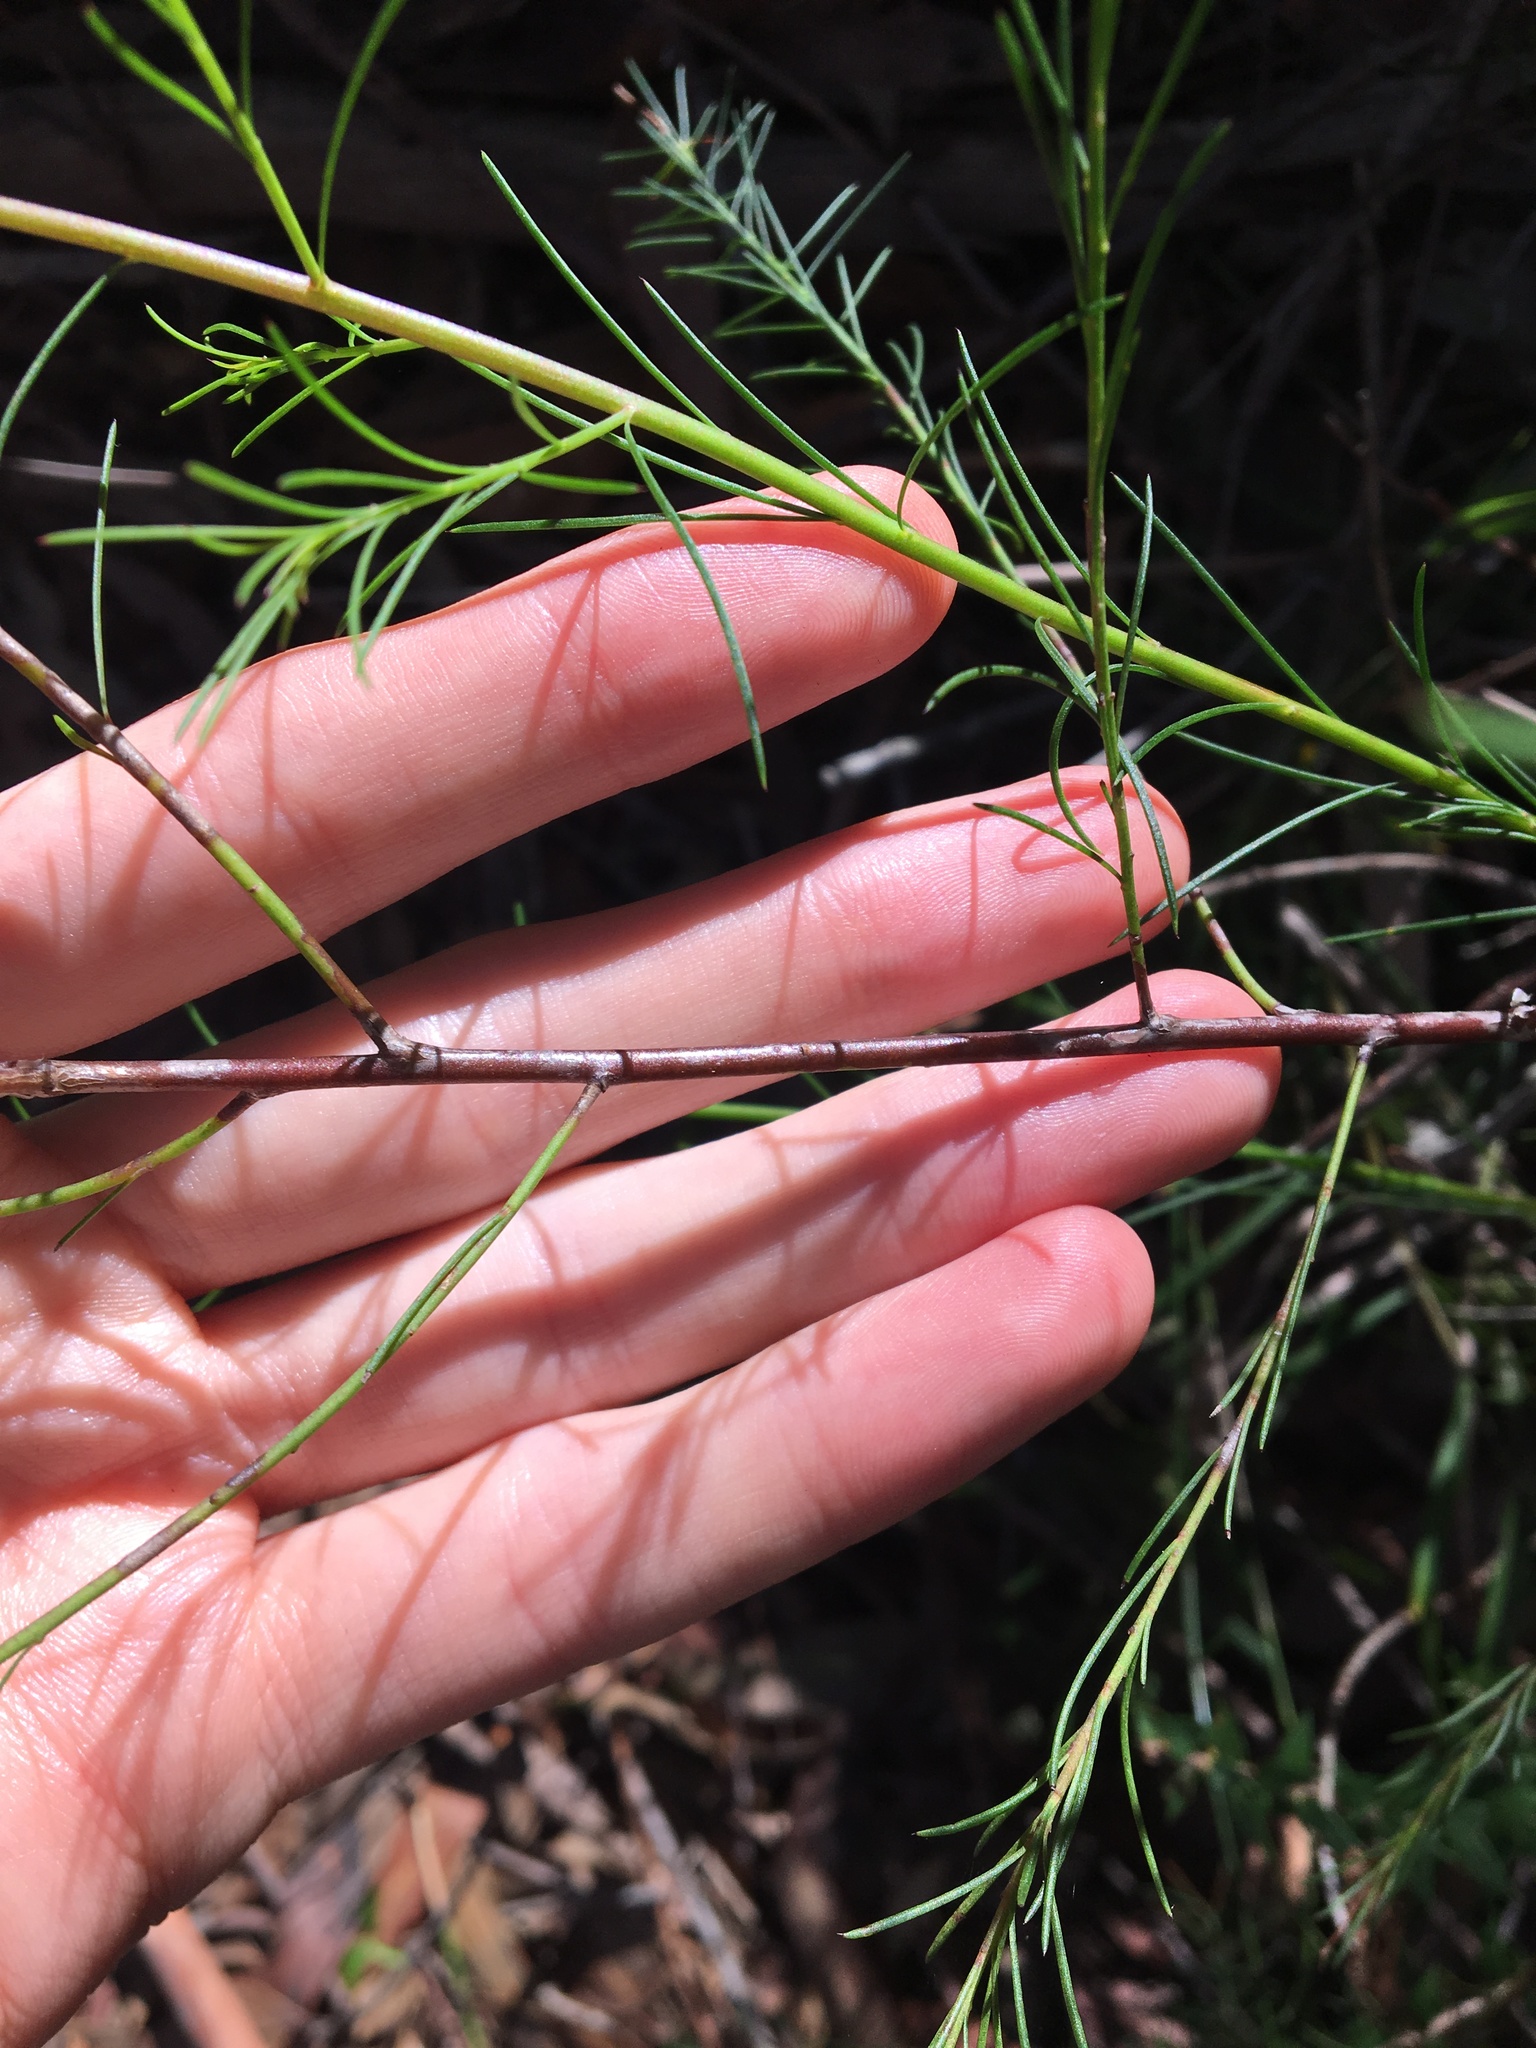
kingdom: Plantae
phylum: Tracheophyta
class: Magnoliopsida
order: Apiales
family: Apiaceae
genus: Platysace
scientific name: Platysace linearifolia
